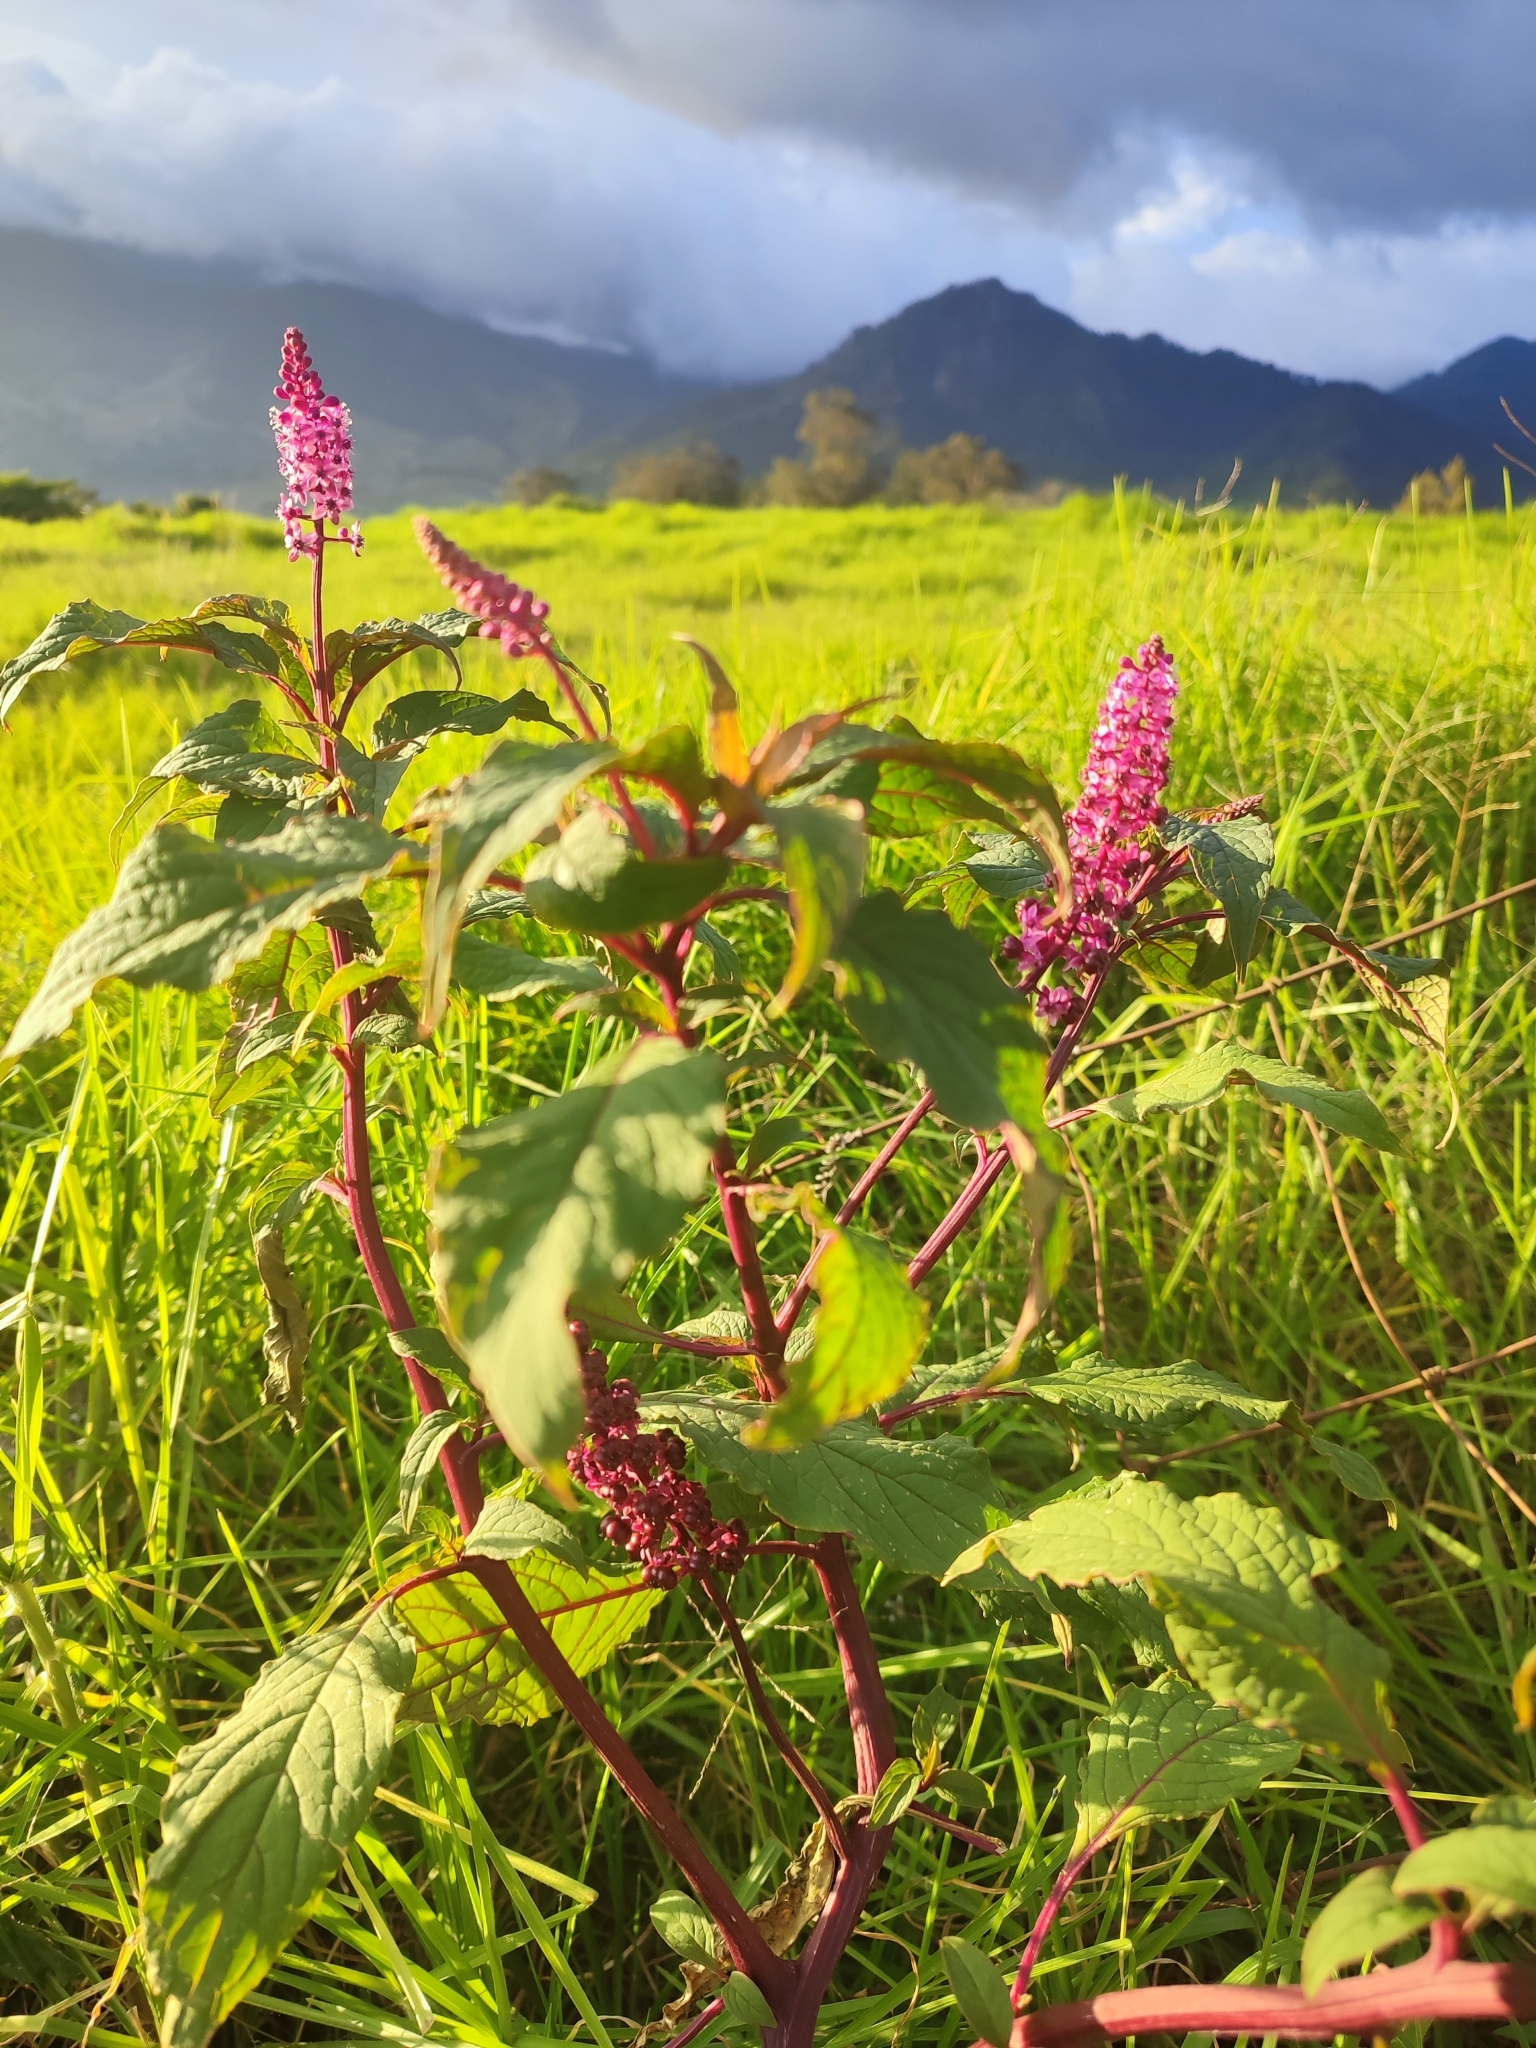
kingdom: Plantae
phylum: Tracheophyta
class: Magnoliopsida
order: Caryophyllales
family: Phytolaccaceae
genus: Phytolacca
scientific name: Phytolacca rugosa
